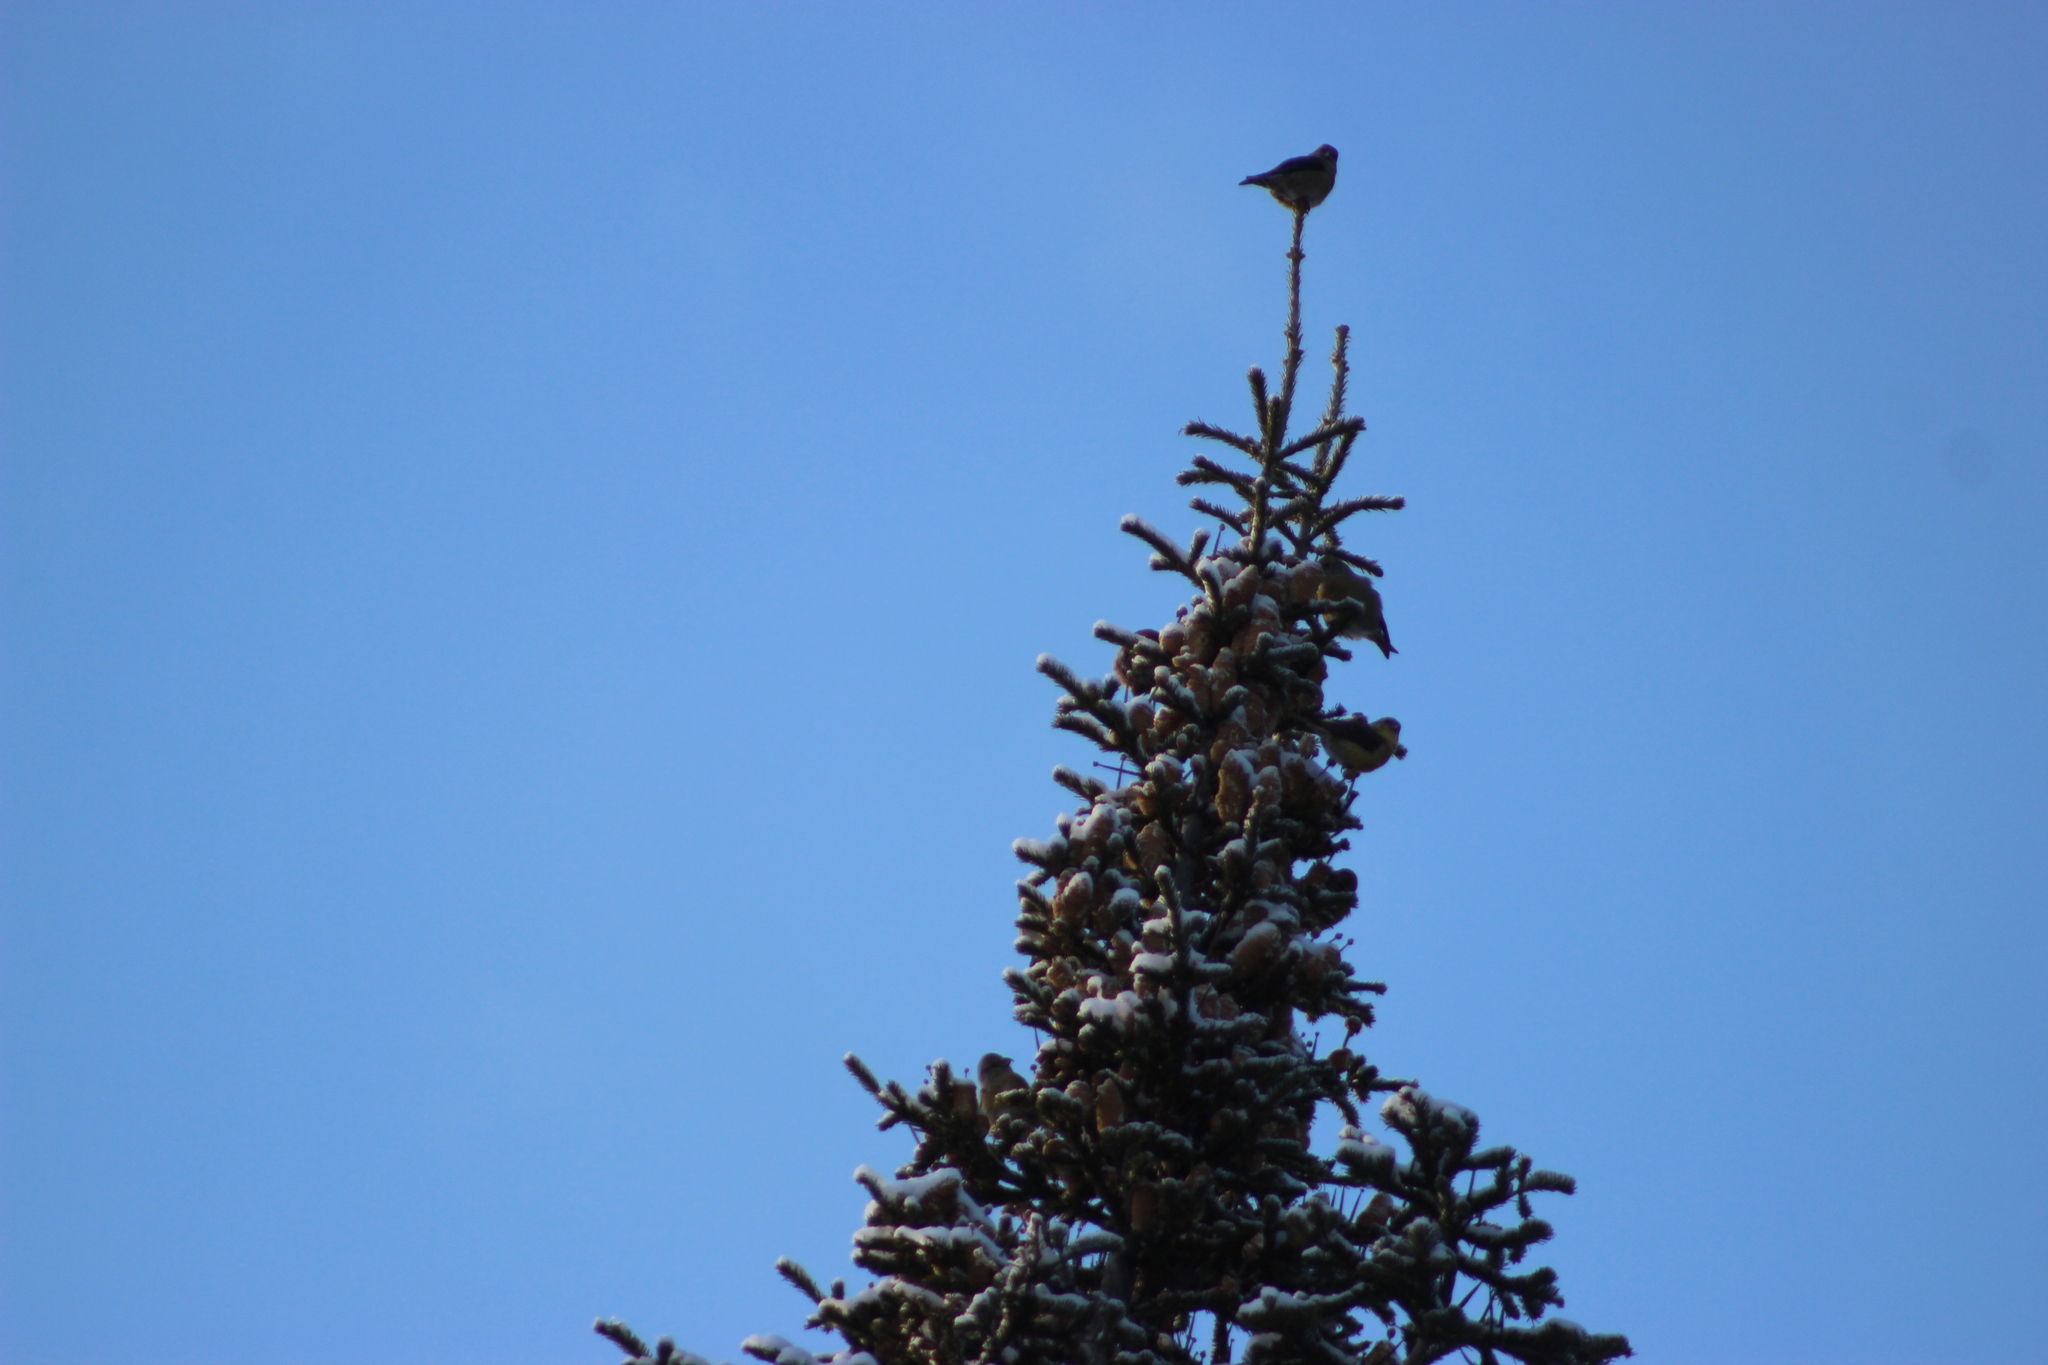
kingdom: Animalia
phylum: Chordata
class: Aves
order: Passeriformes
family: Fringillidae
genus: Loxia
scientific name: Loxia curvirostra
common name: Red crossbill
